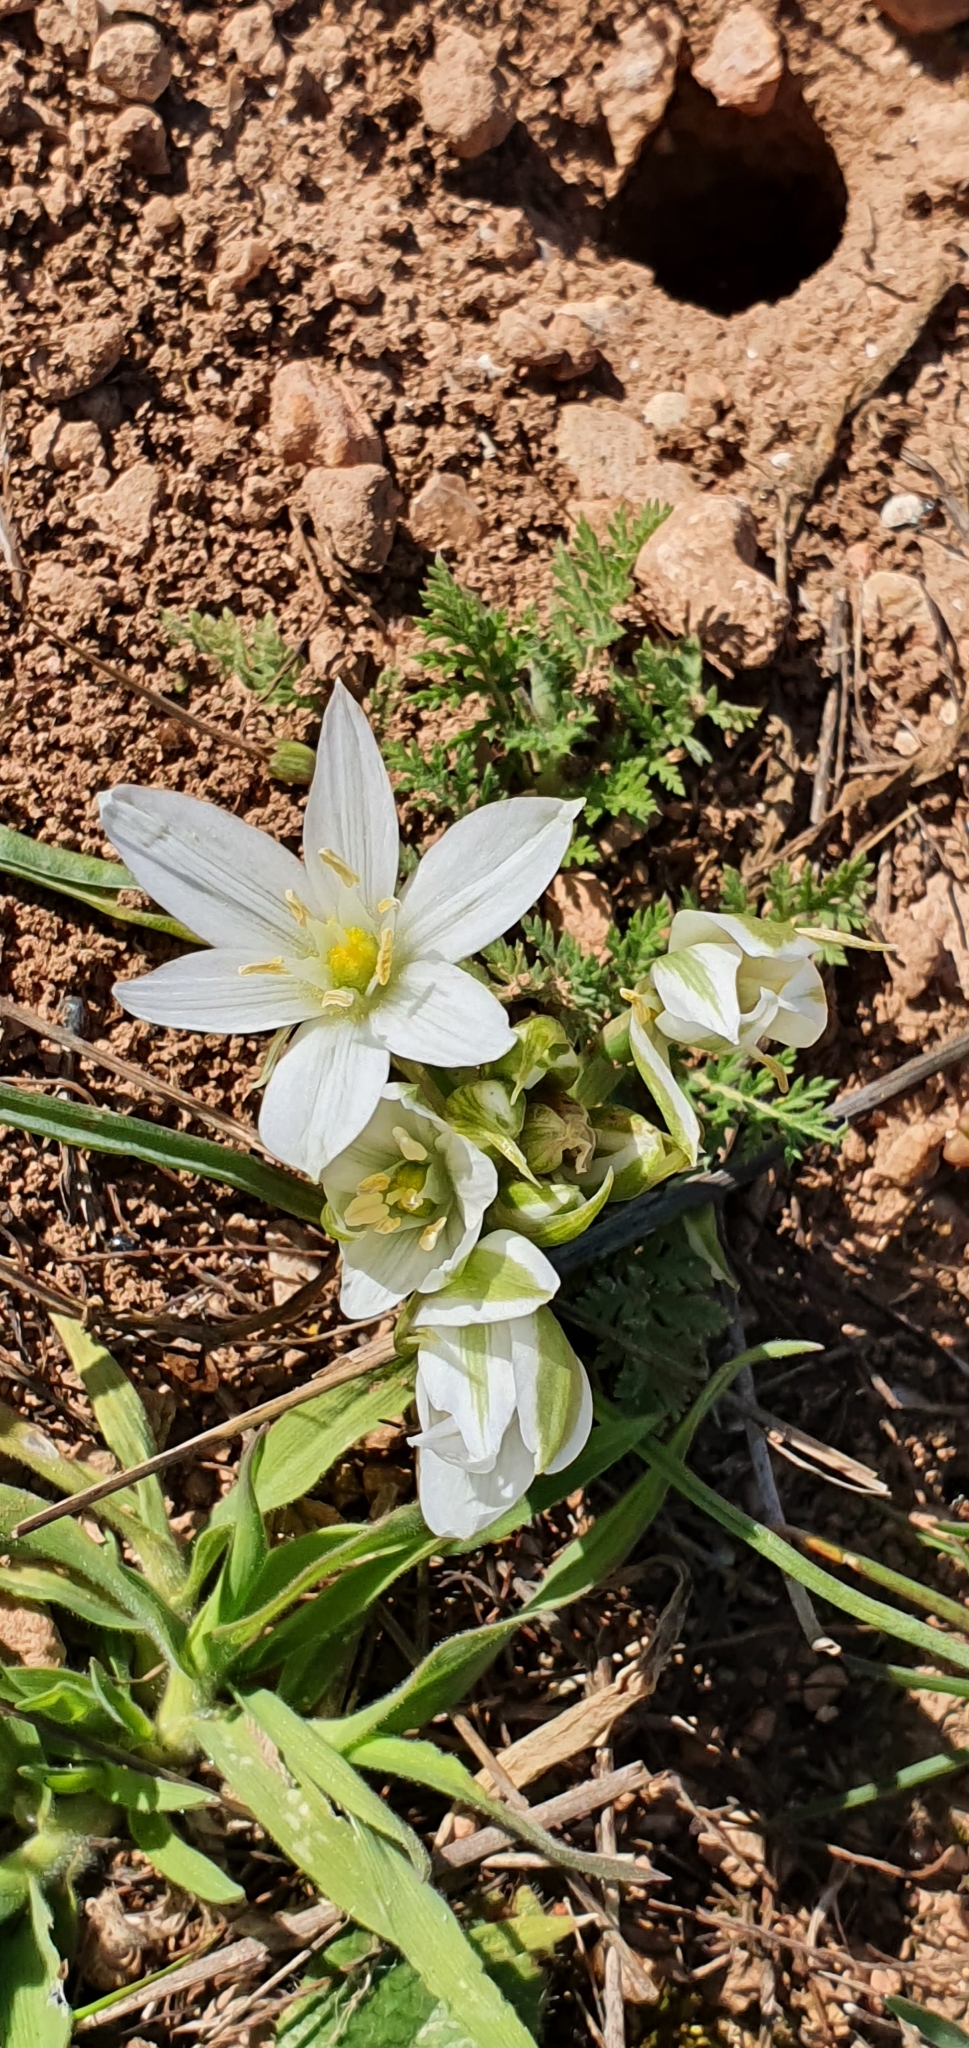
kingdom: Plantae
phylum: Tracheophyta
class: Liliopsida
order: Asparagales
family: Asparagaceae
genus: Ornithogalum
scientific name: Ornithogalum baeticum
